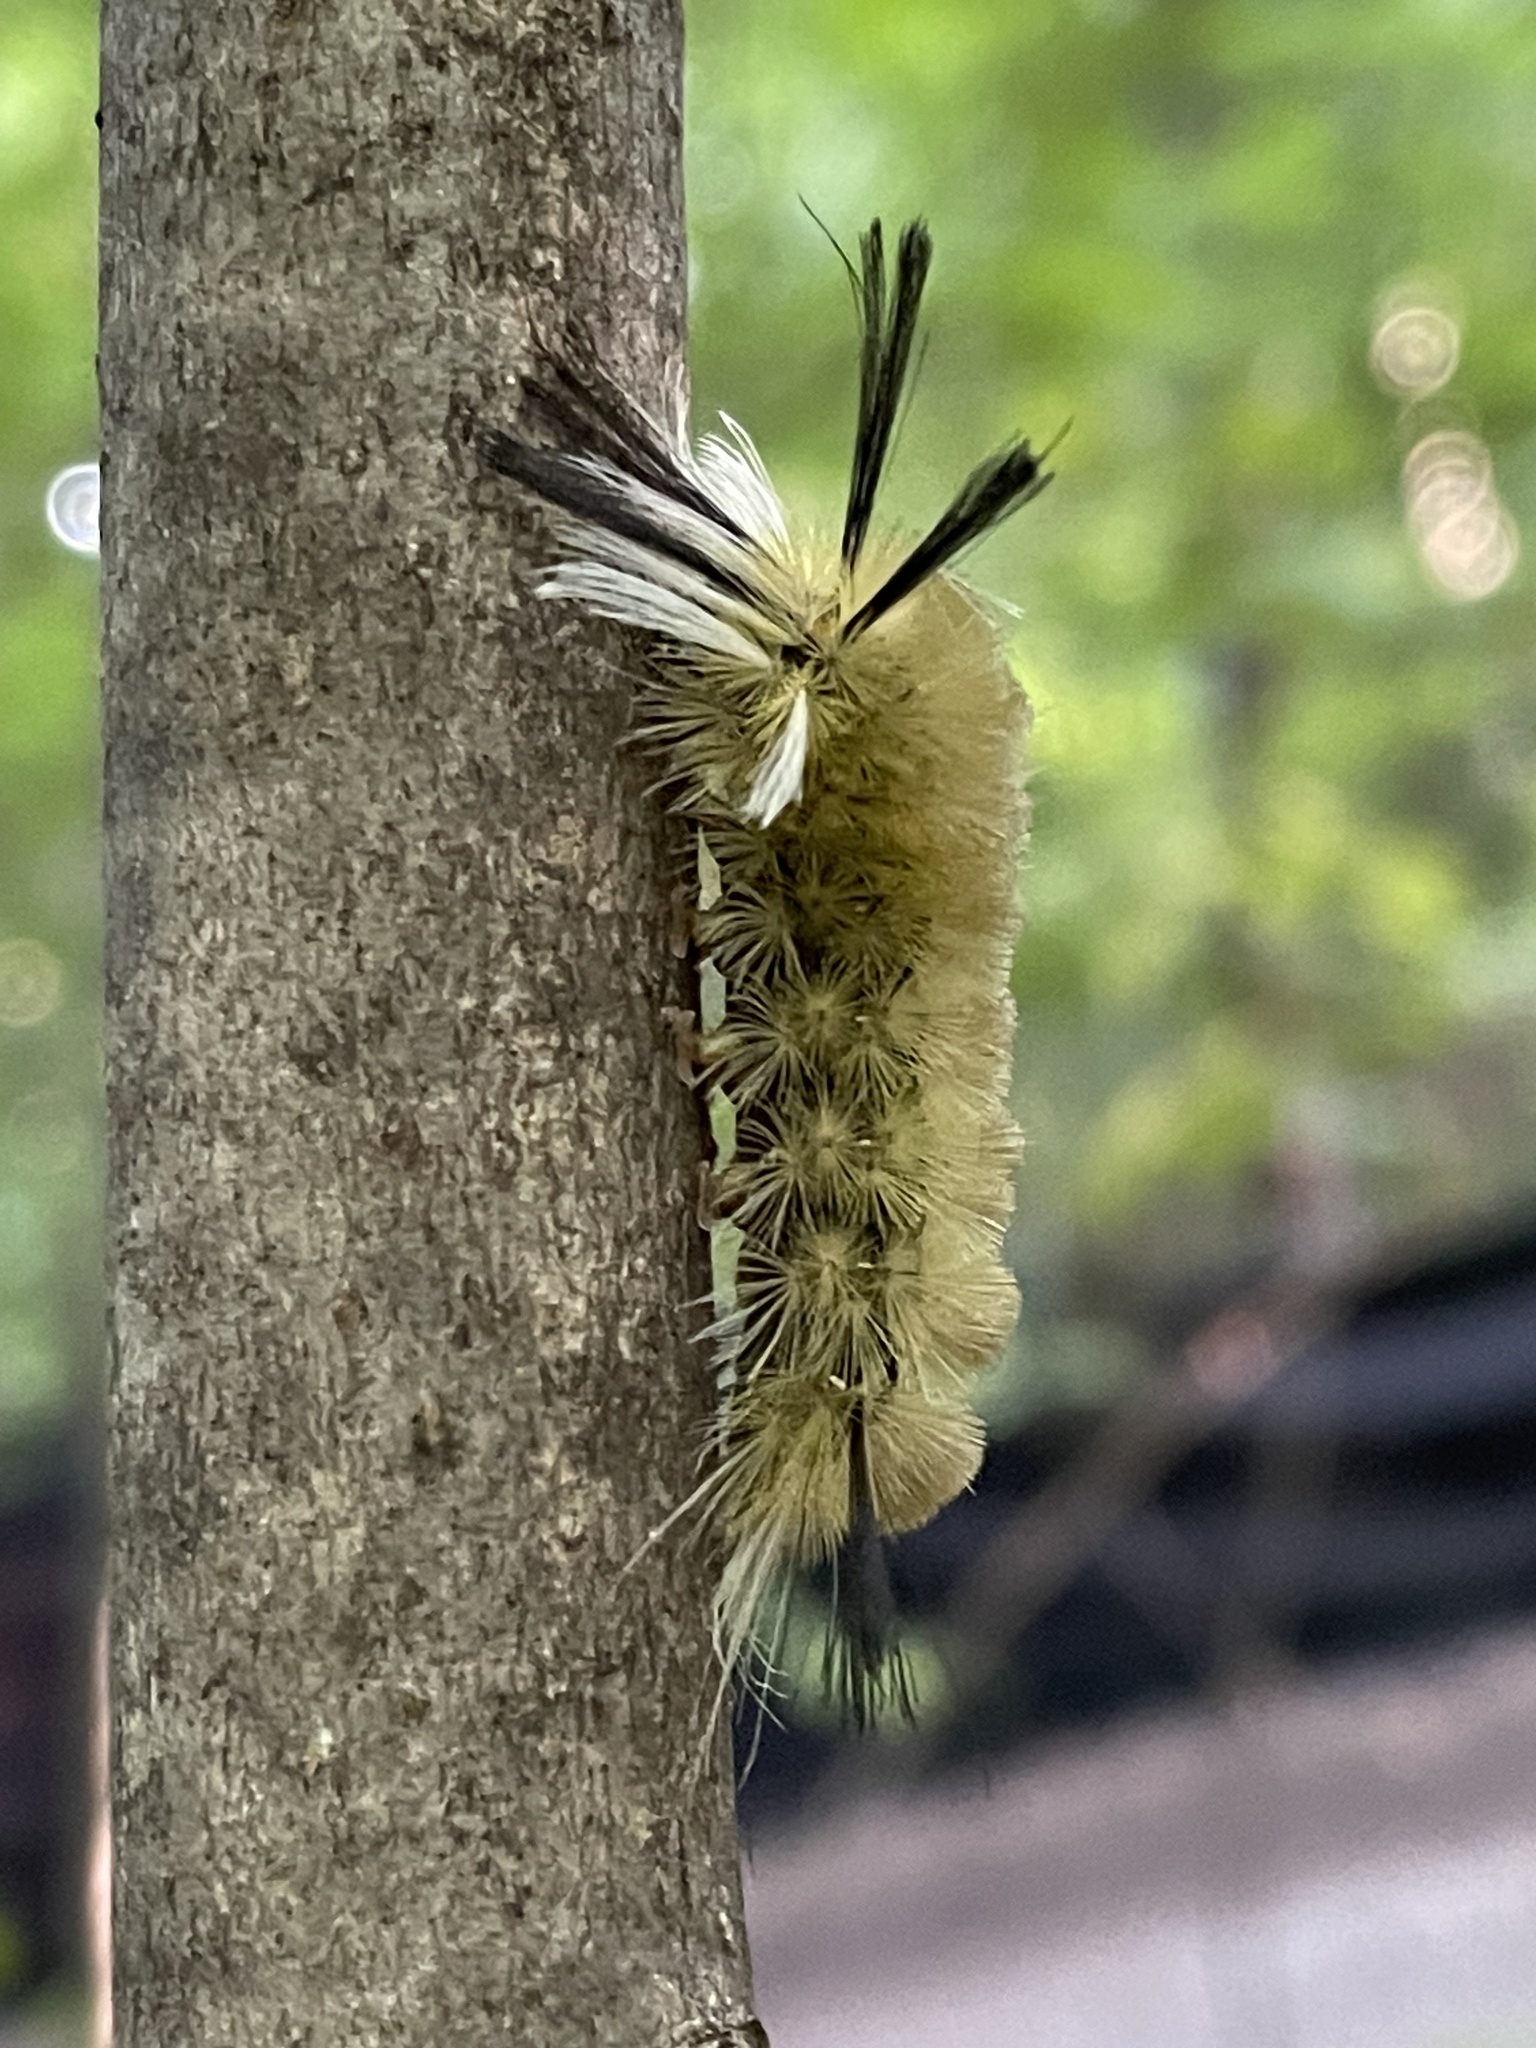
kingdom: Animalia
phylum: Arthropoda
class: Insecta
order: Lepidoptera
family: Erebidae
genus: Halysidota
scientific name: Halysidota tessellaris
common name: Banded tussock moth
